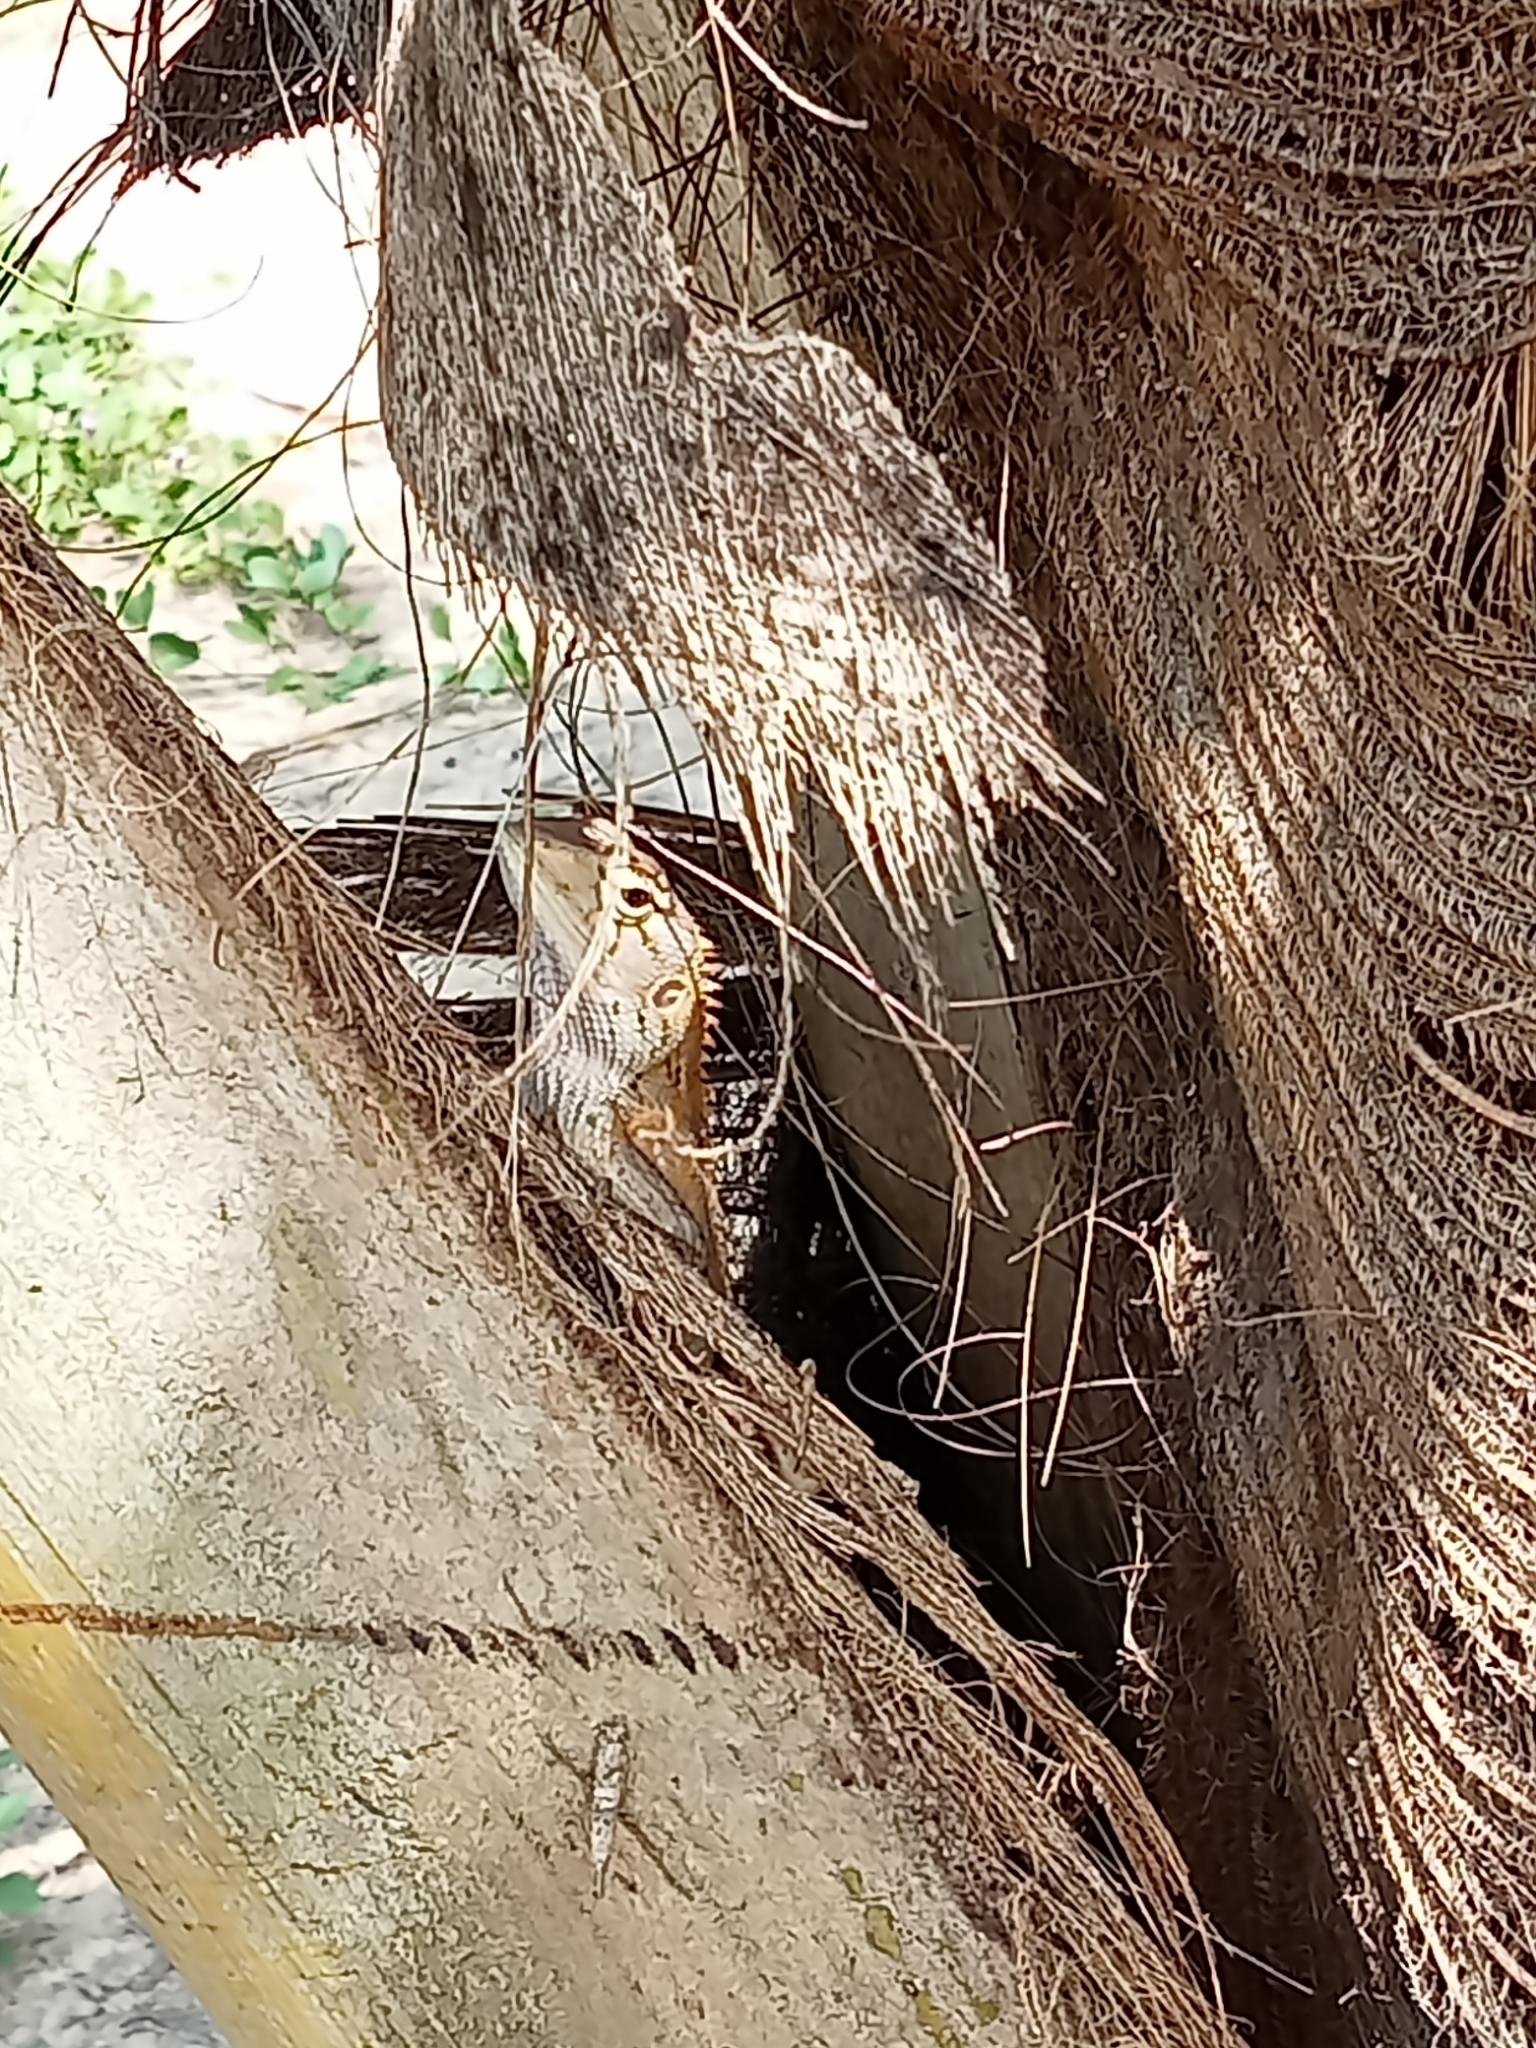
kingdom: Animalia
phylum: Chordata
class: Squamata
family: Agamidae
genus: Calotes
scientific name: Calotes versicolor
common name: Oriental garden lizard
